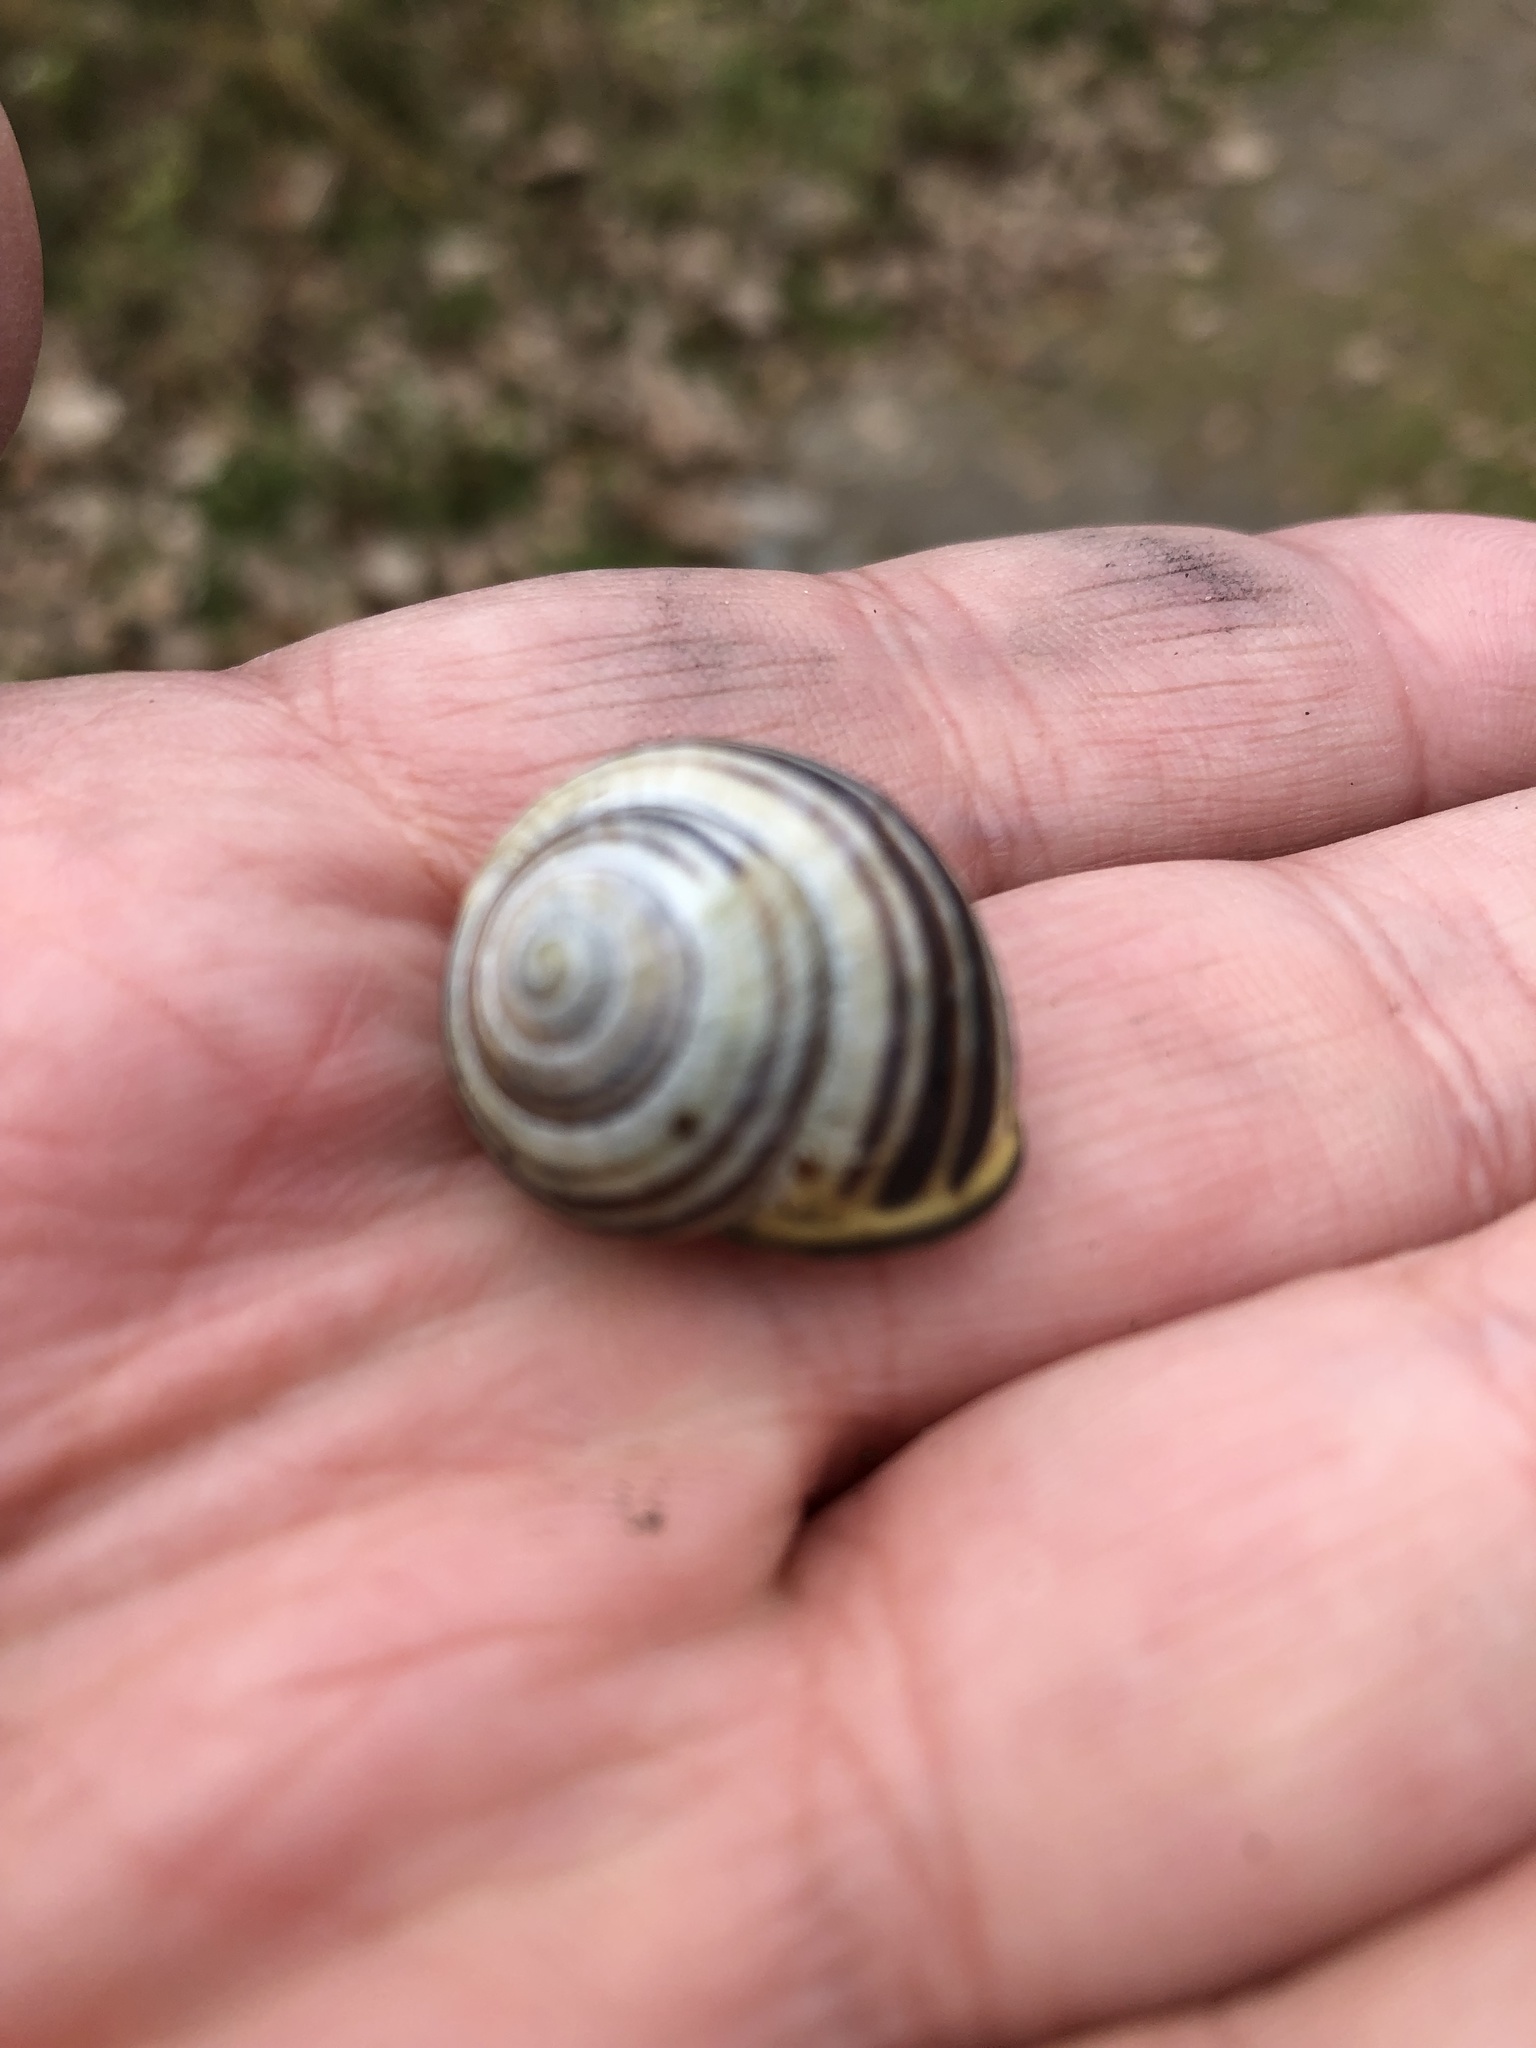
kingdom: Animalia
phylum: Mollusca
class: Gastropoda
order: Stylommatophora
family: Helicidae
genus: Cepaea
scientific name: Cepaea nemoralis
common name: Grovesnail
